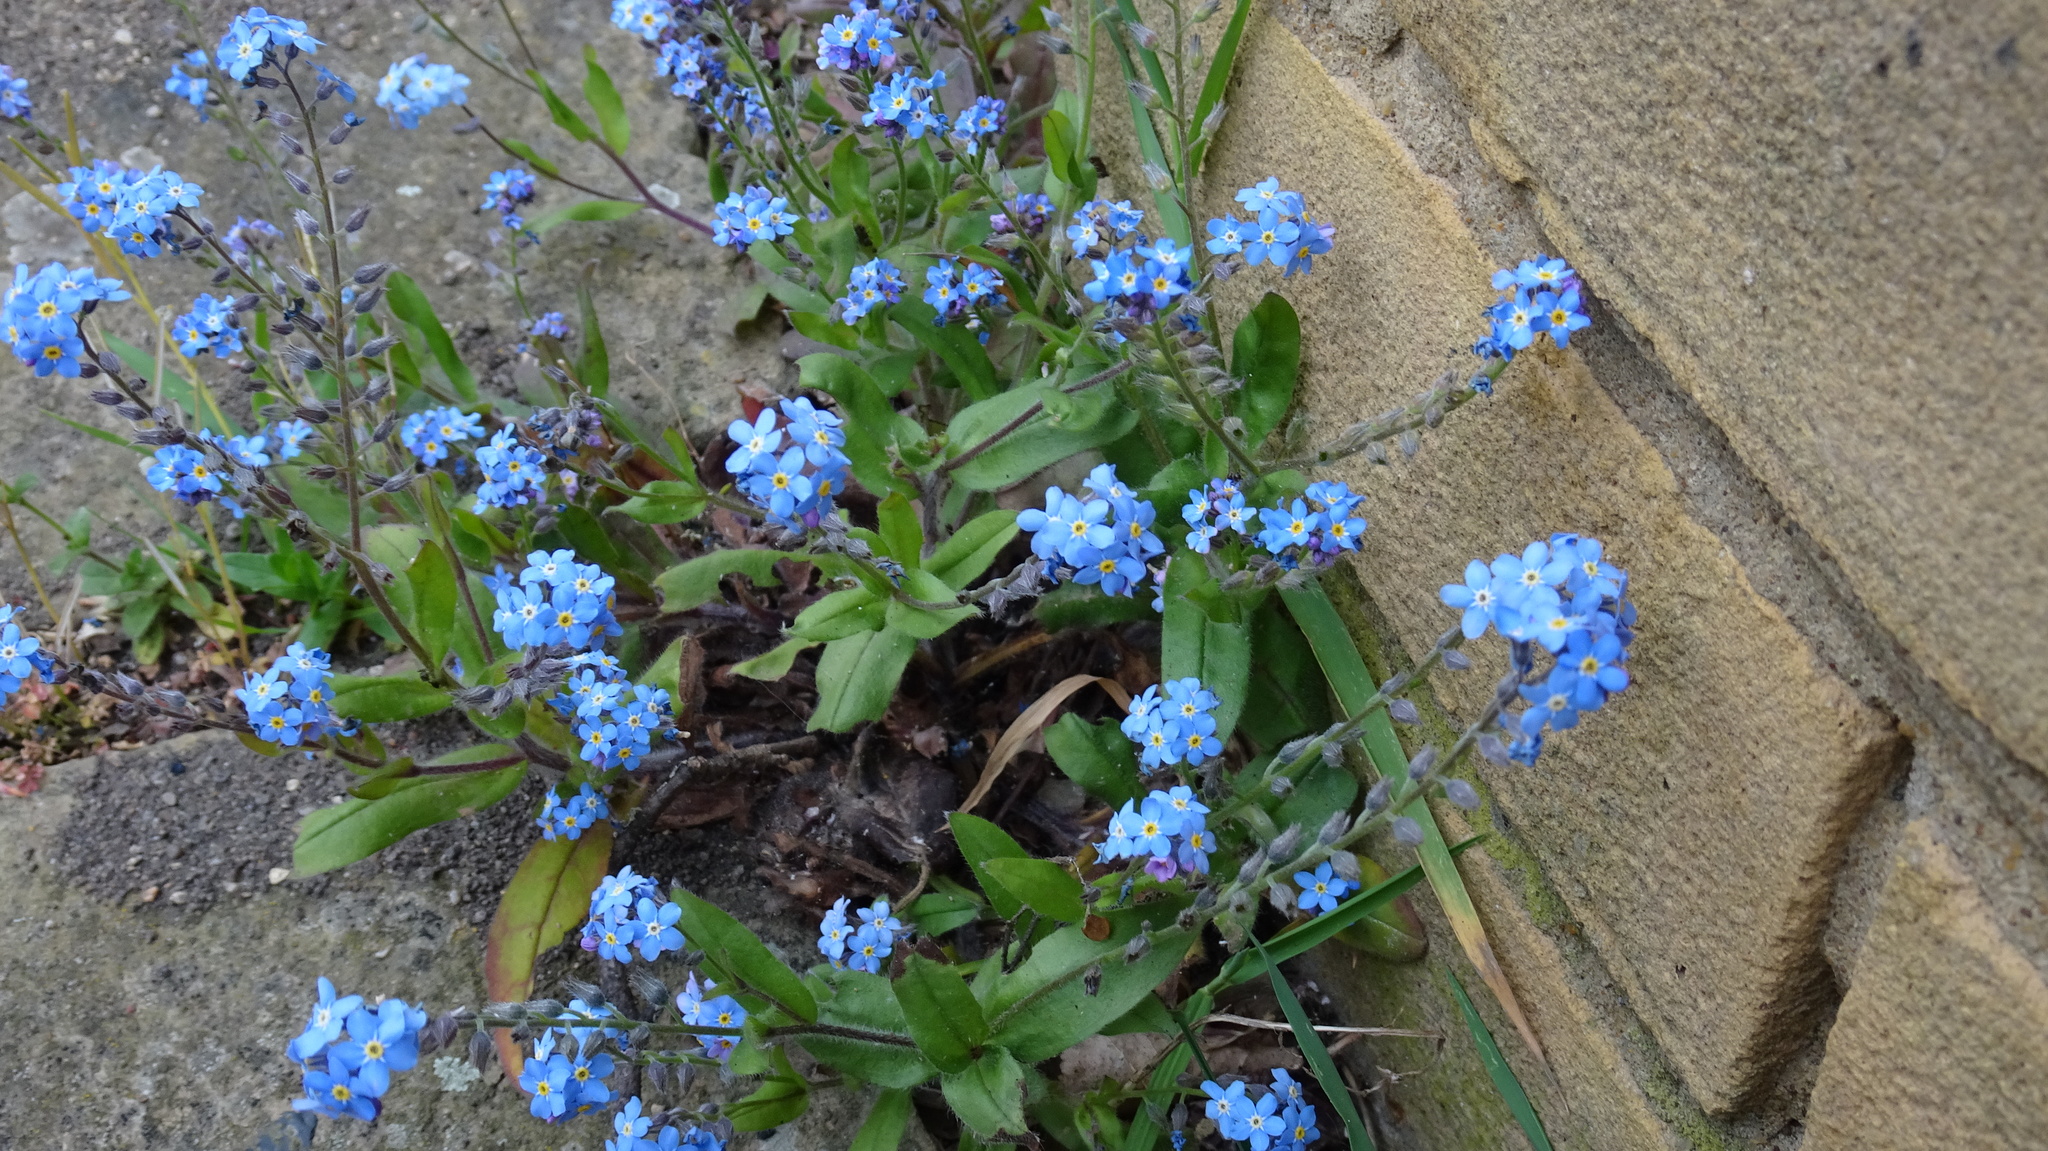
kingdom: Plantae
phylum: Tracheophyta
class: Magnoliopsida
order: Boraginales
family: Boraginaceae
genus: Myosotis
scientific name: Myosotis sylvatica
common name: Wood forget-me-not
